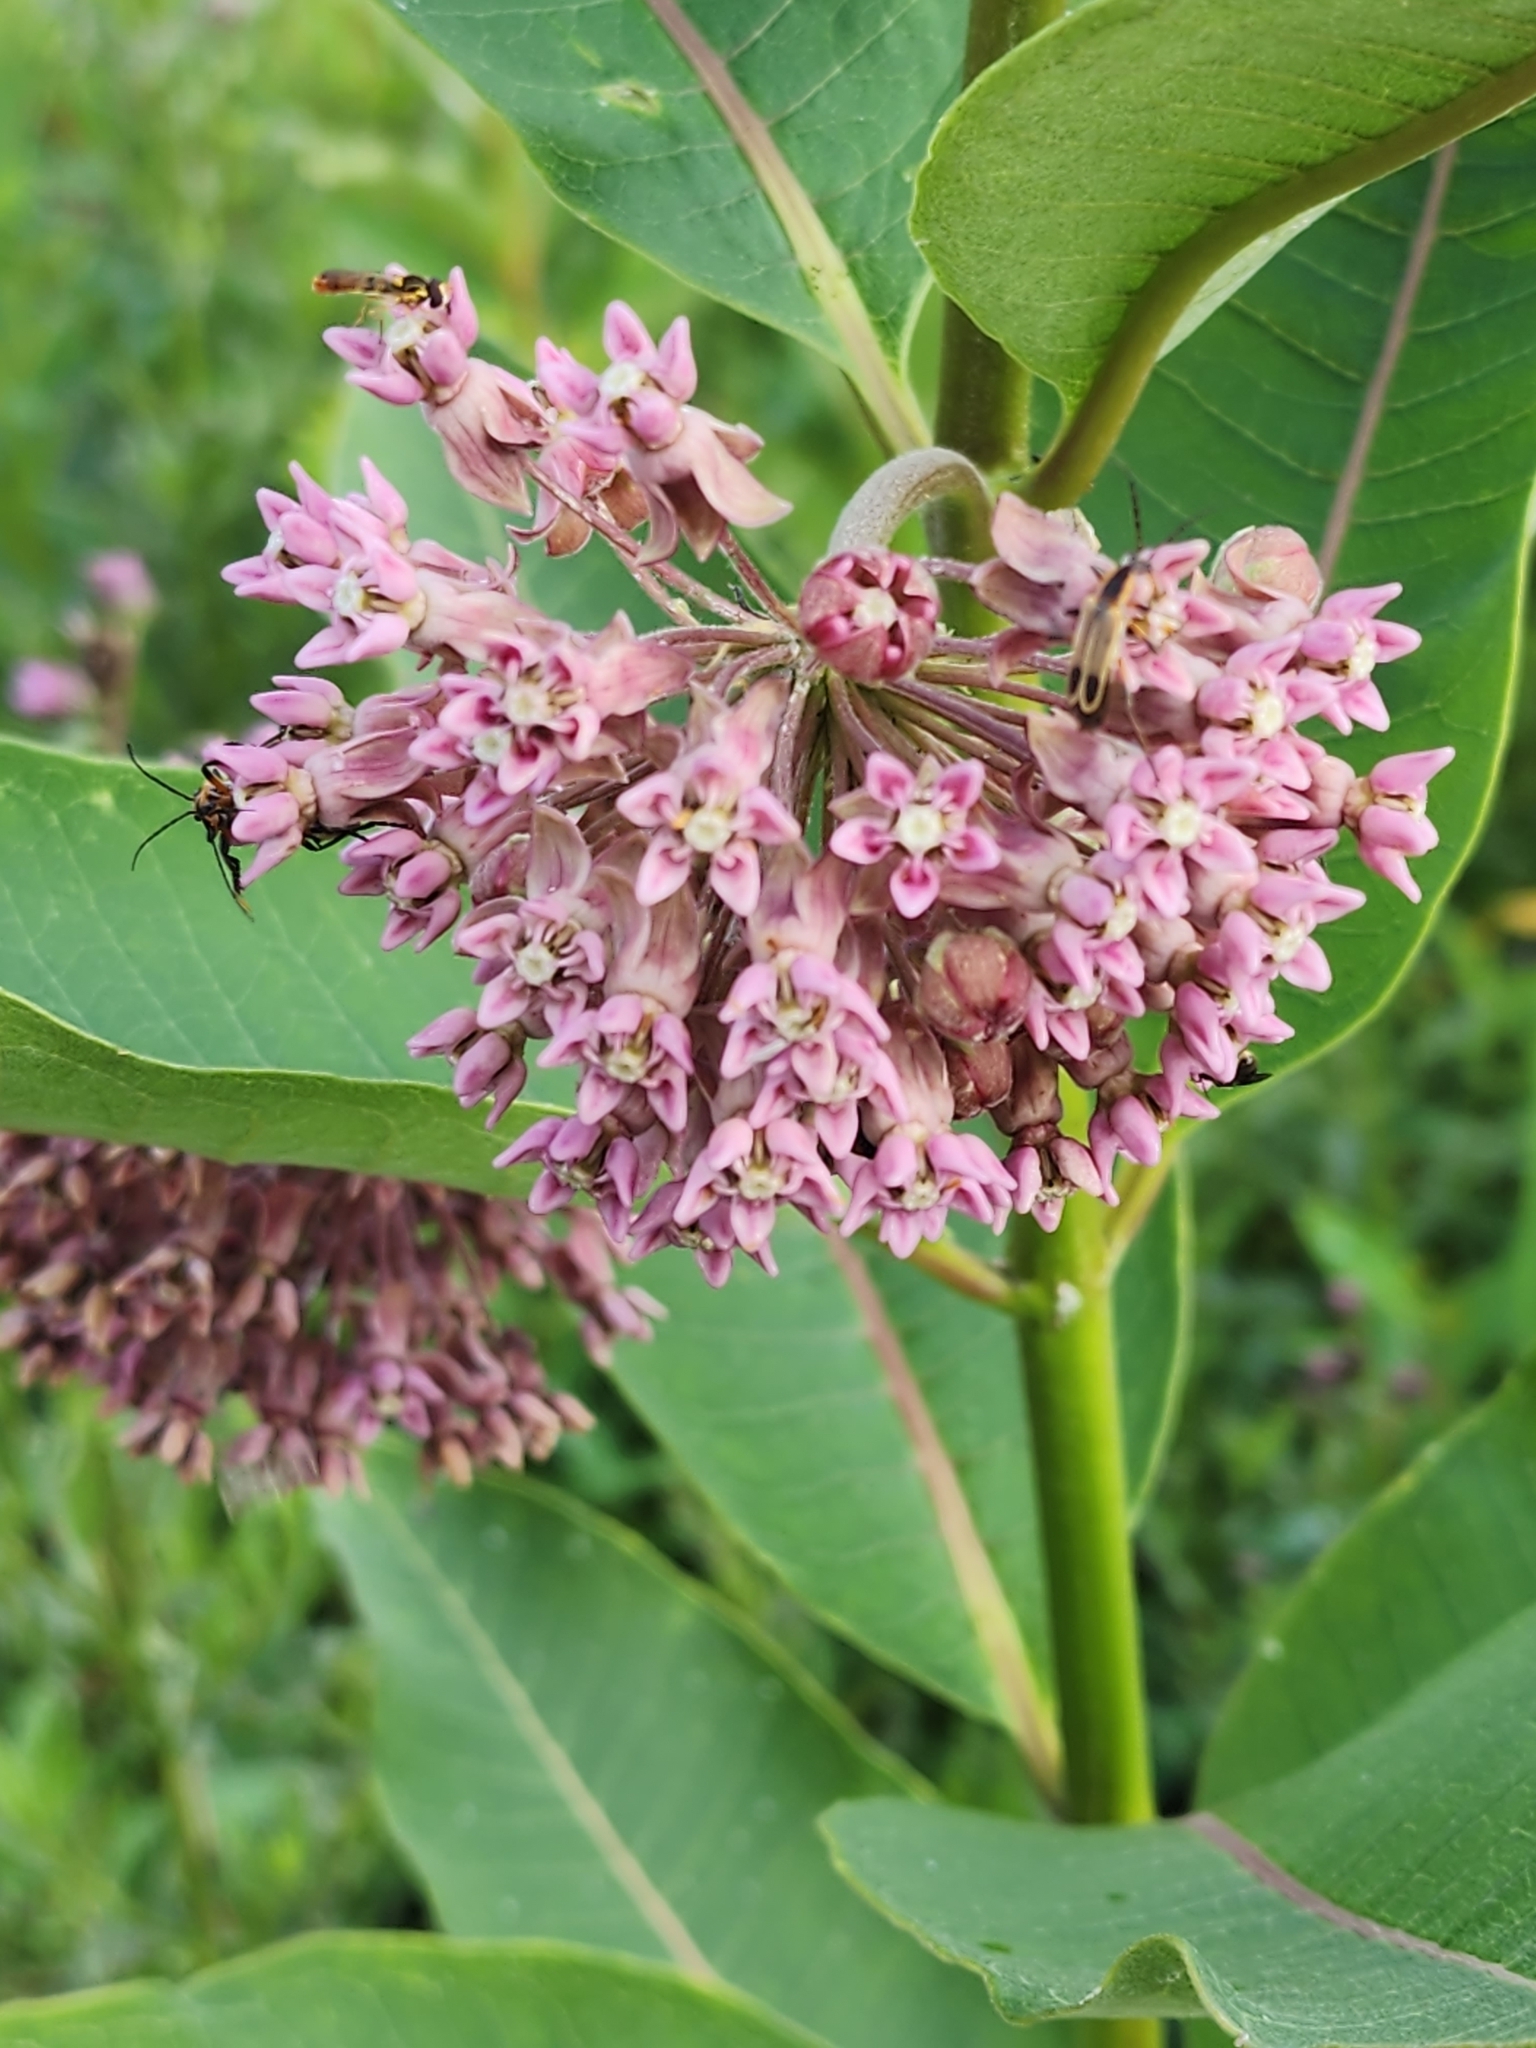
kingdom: Plantae
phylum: Tracheophyta
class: Magnoliopsida
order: Gentianales
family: Apocynaceae
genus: Asclepias
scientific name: Asclepias syriaca
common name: Common milkweed
